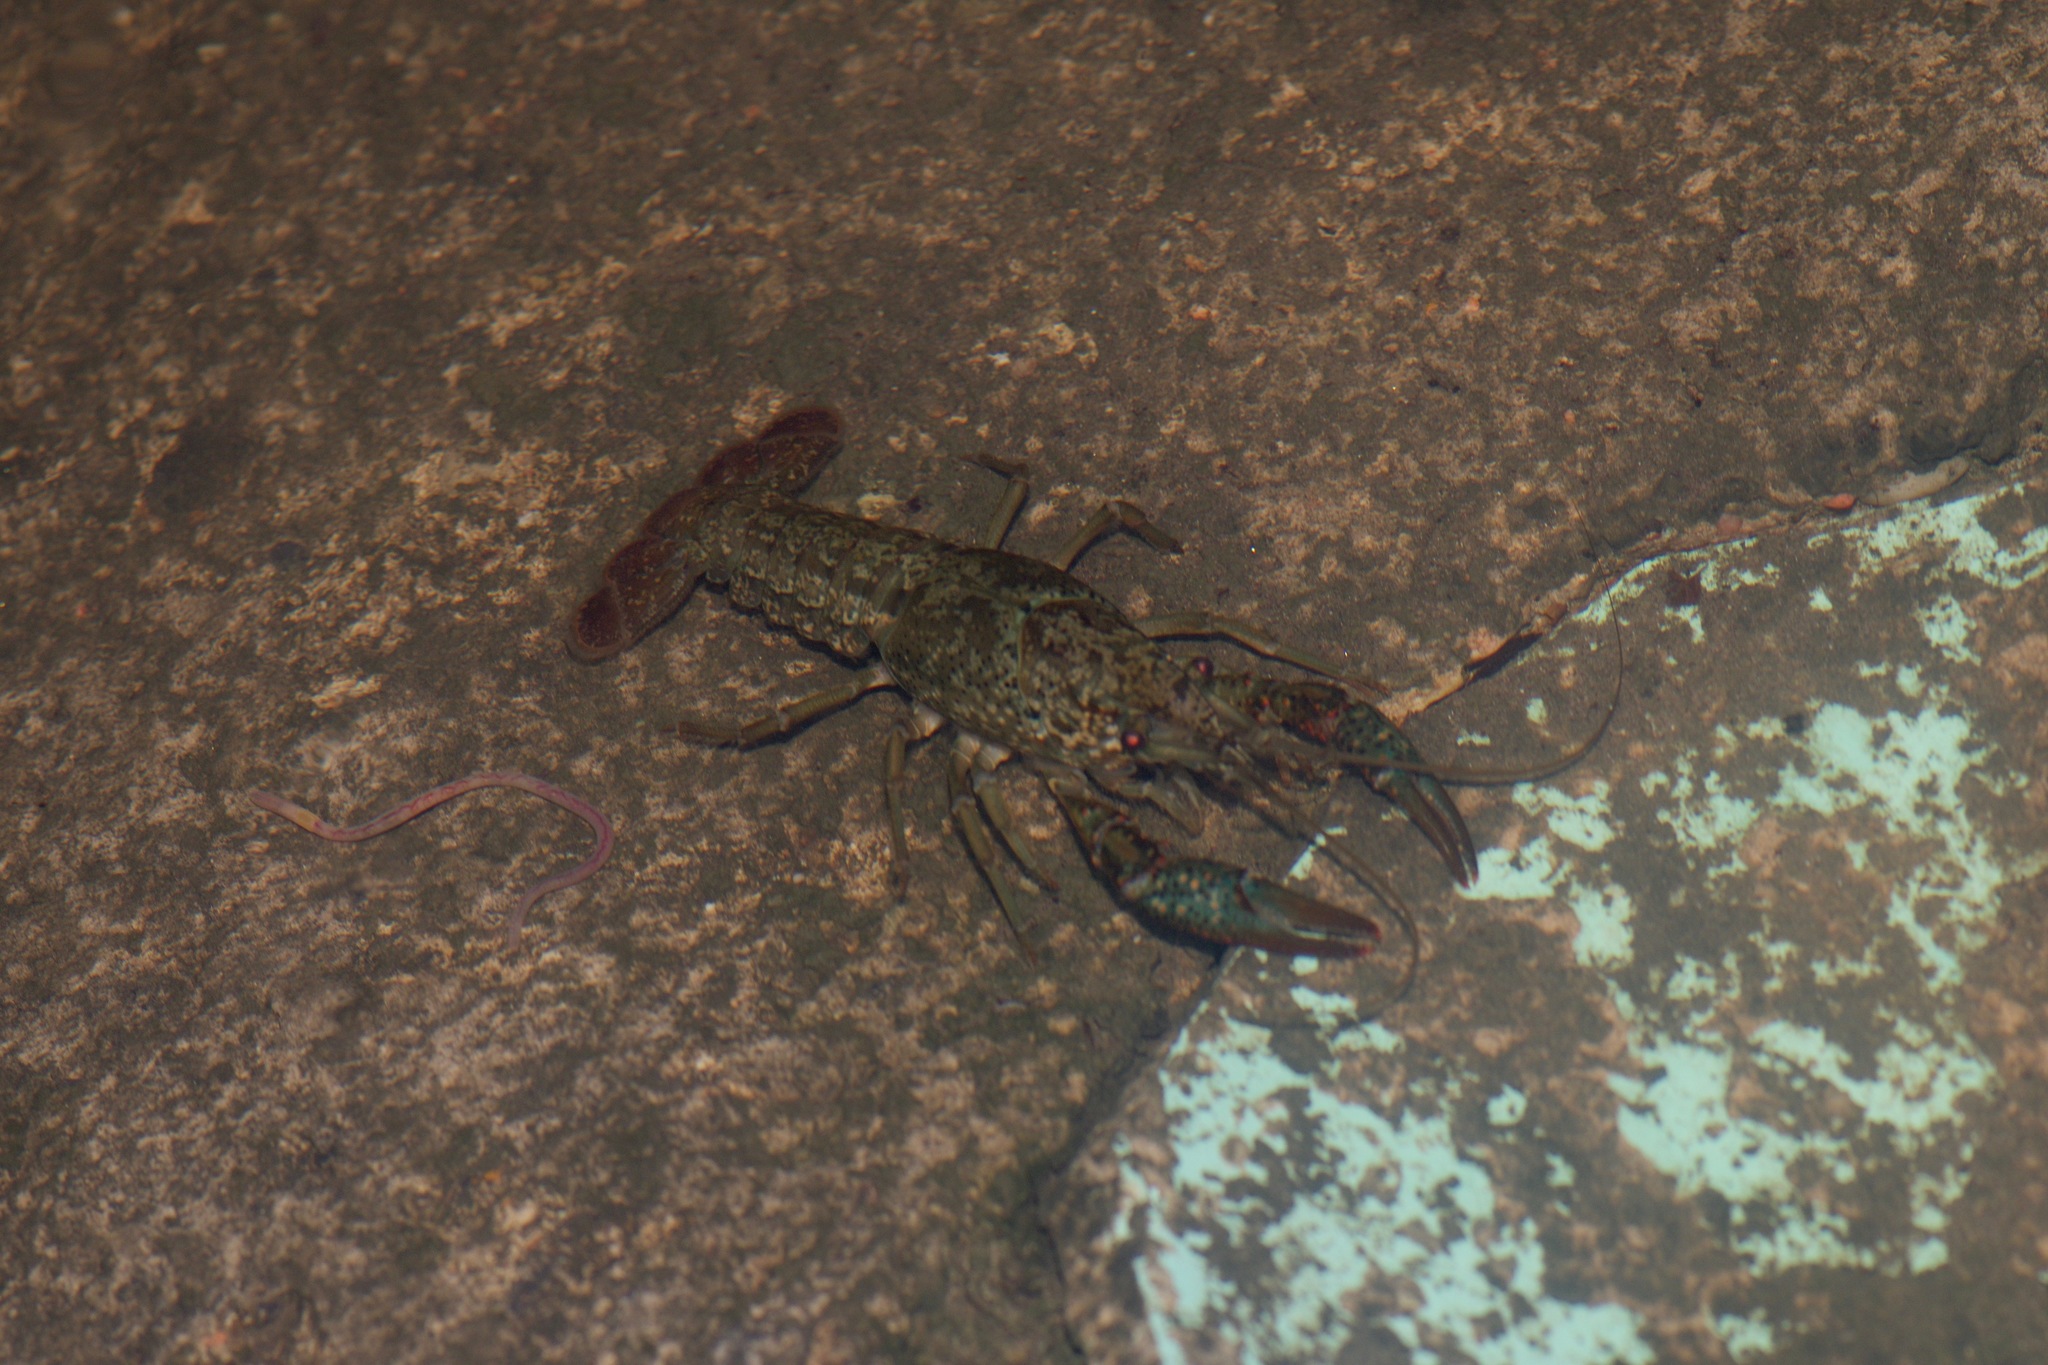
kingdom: Animalia
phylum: Arthropoda
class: Malacostraca
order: Decapoda
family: Cambaridae
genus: Procambarus
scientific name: Procambarus clarkii
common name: Red swamp crayfish
